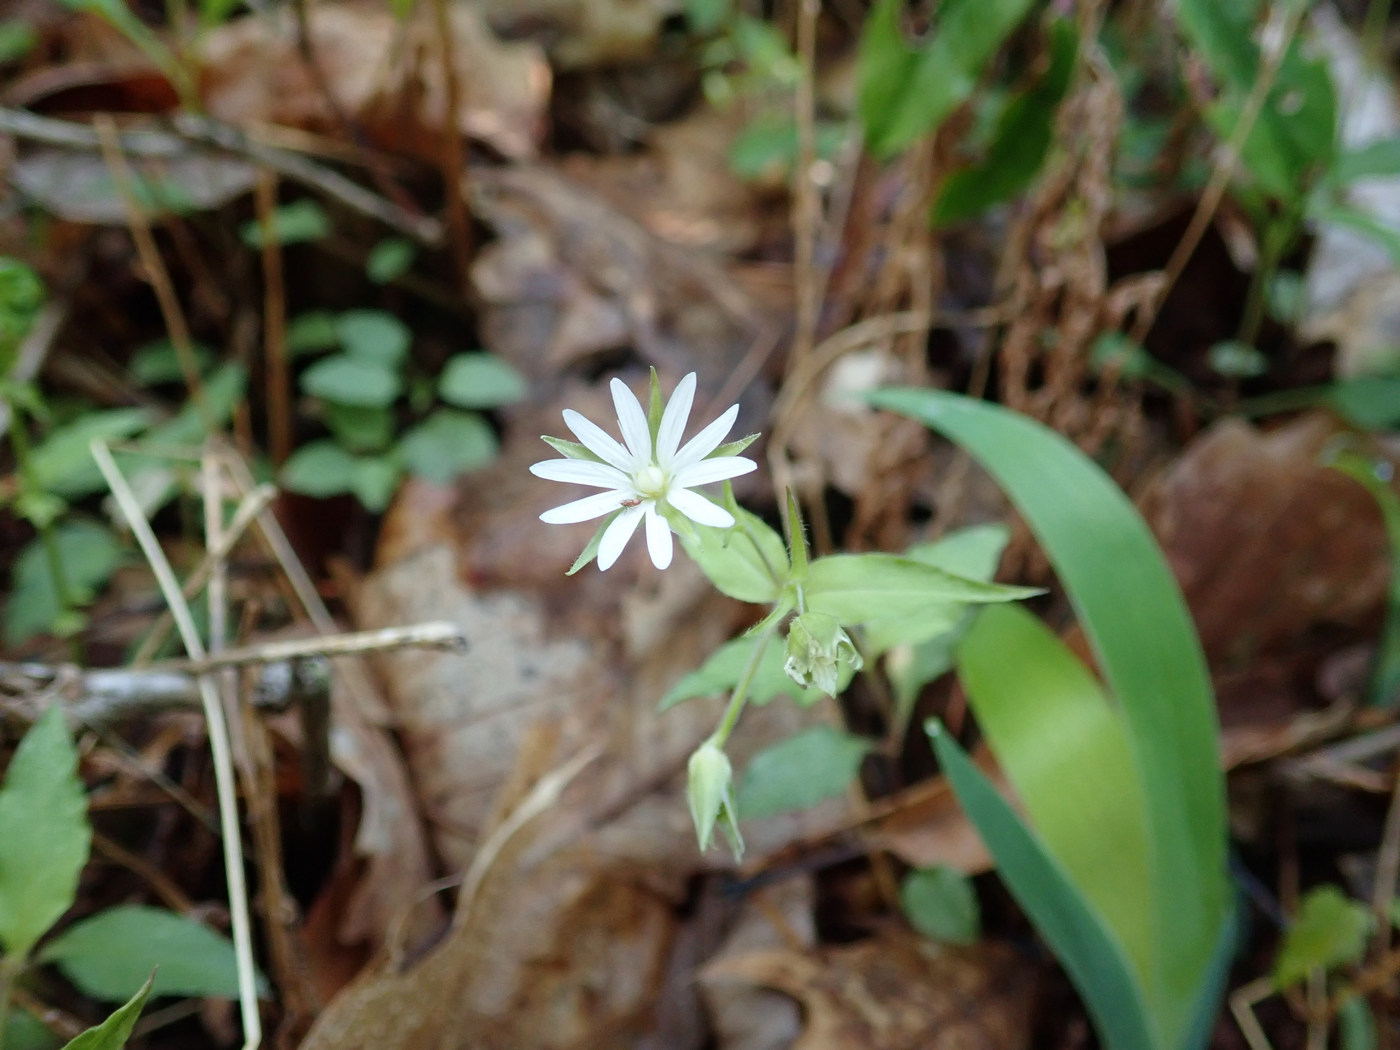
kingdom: Plantae
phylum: Tracheophyta
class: Magnoliopsida
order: Caryophyllales
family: Caryophyllaceae
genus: Stellaria
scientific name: Stellaria corei
